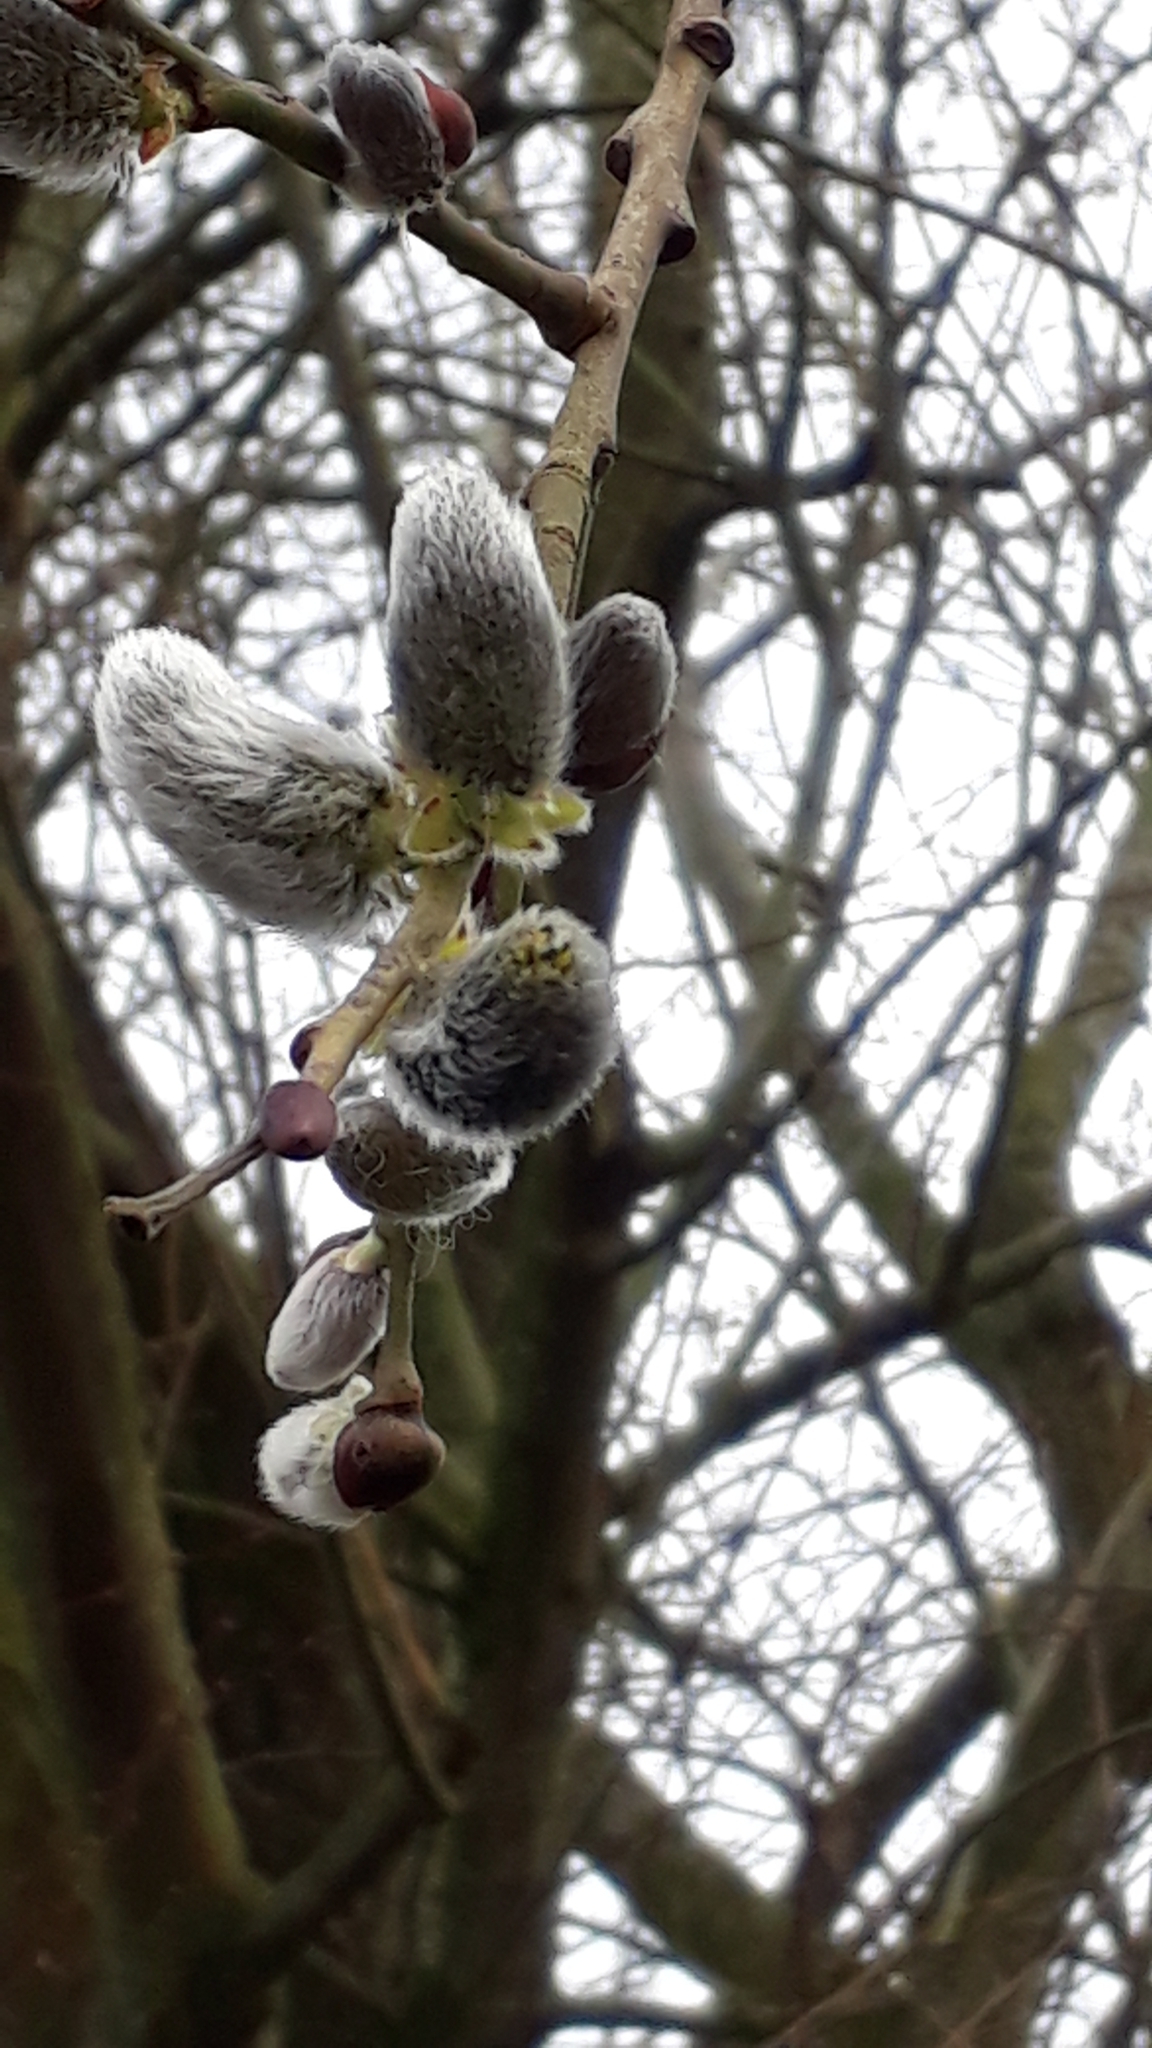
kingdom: Plantae
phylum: Tracheophyta
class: Magnoliopsida
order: Malpighiales
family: Salicaceae
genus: Salix
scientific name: Salix caprea
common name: Goat willow
